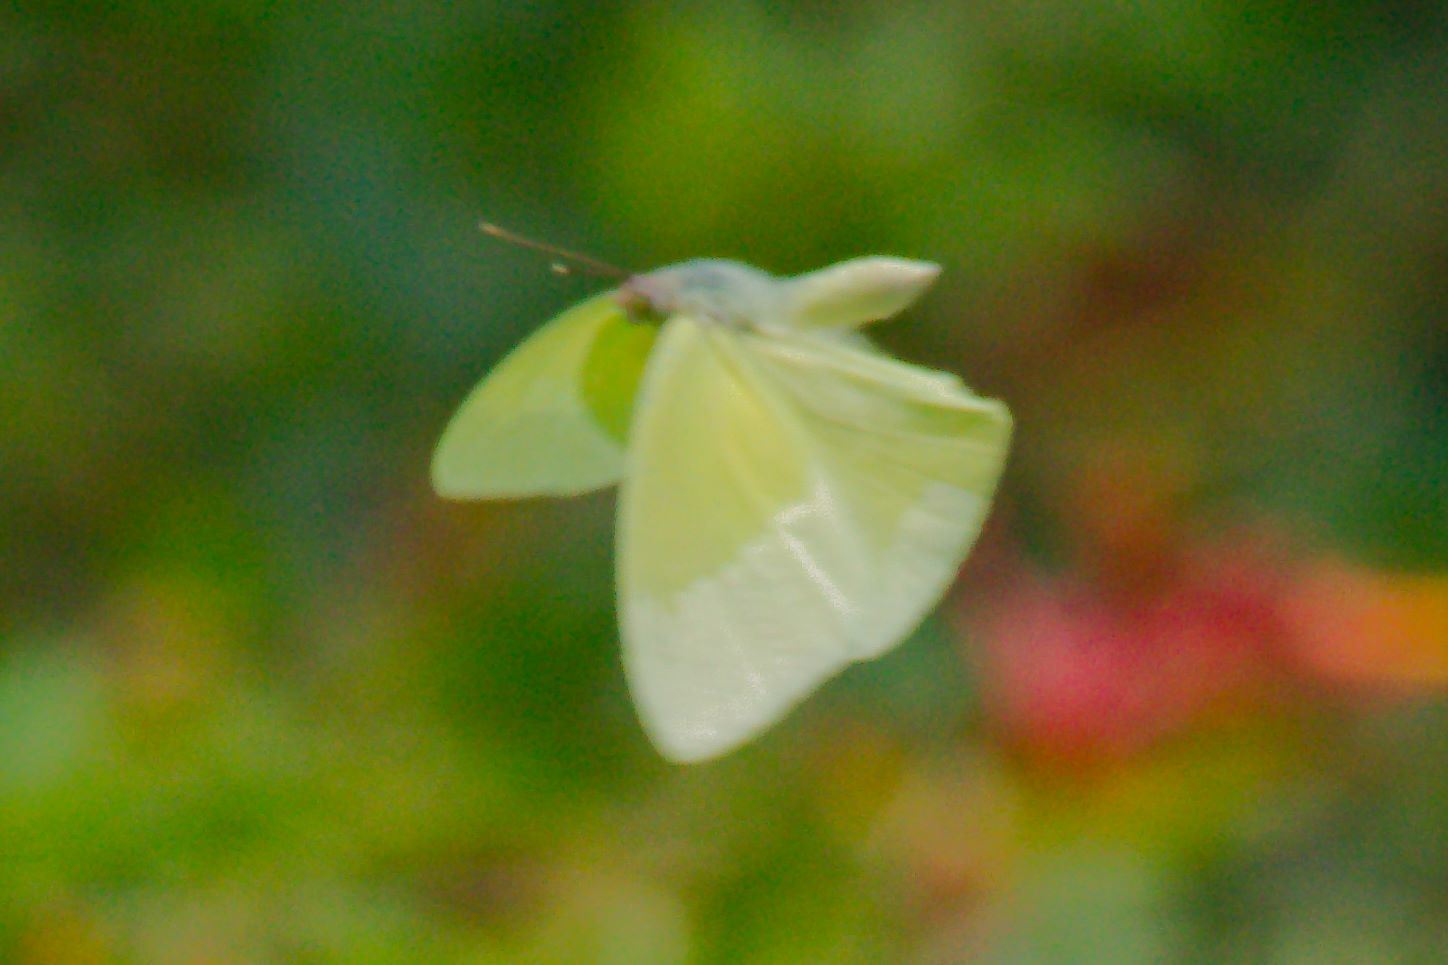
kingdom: Animalia
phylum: Arthropoda
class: Insecta
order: Lepidoptera
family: Pieridae
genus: Aphrissa
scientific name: Aphrissa statira
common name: Statira sulphur
